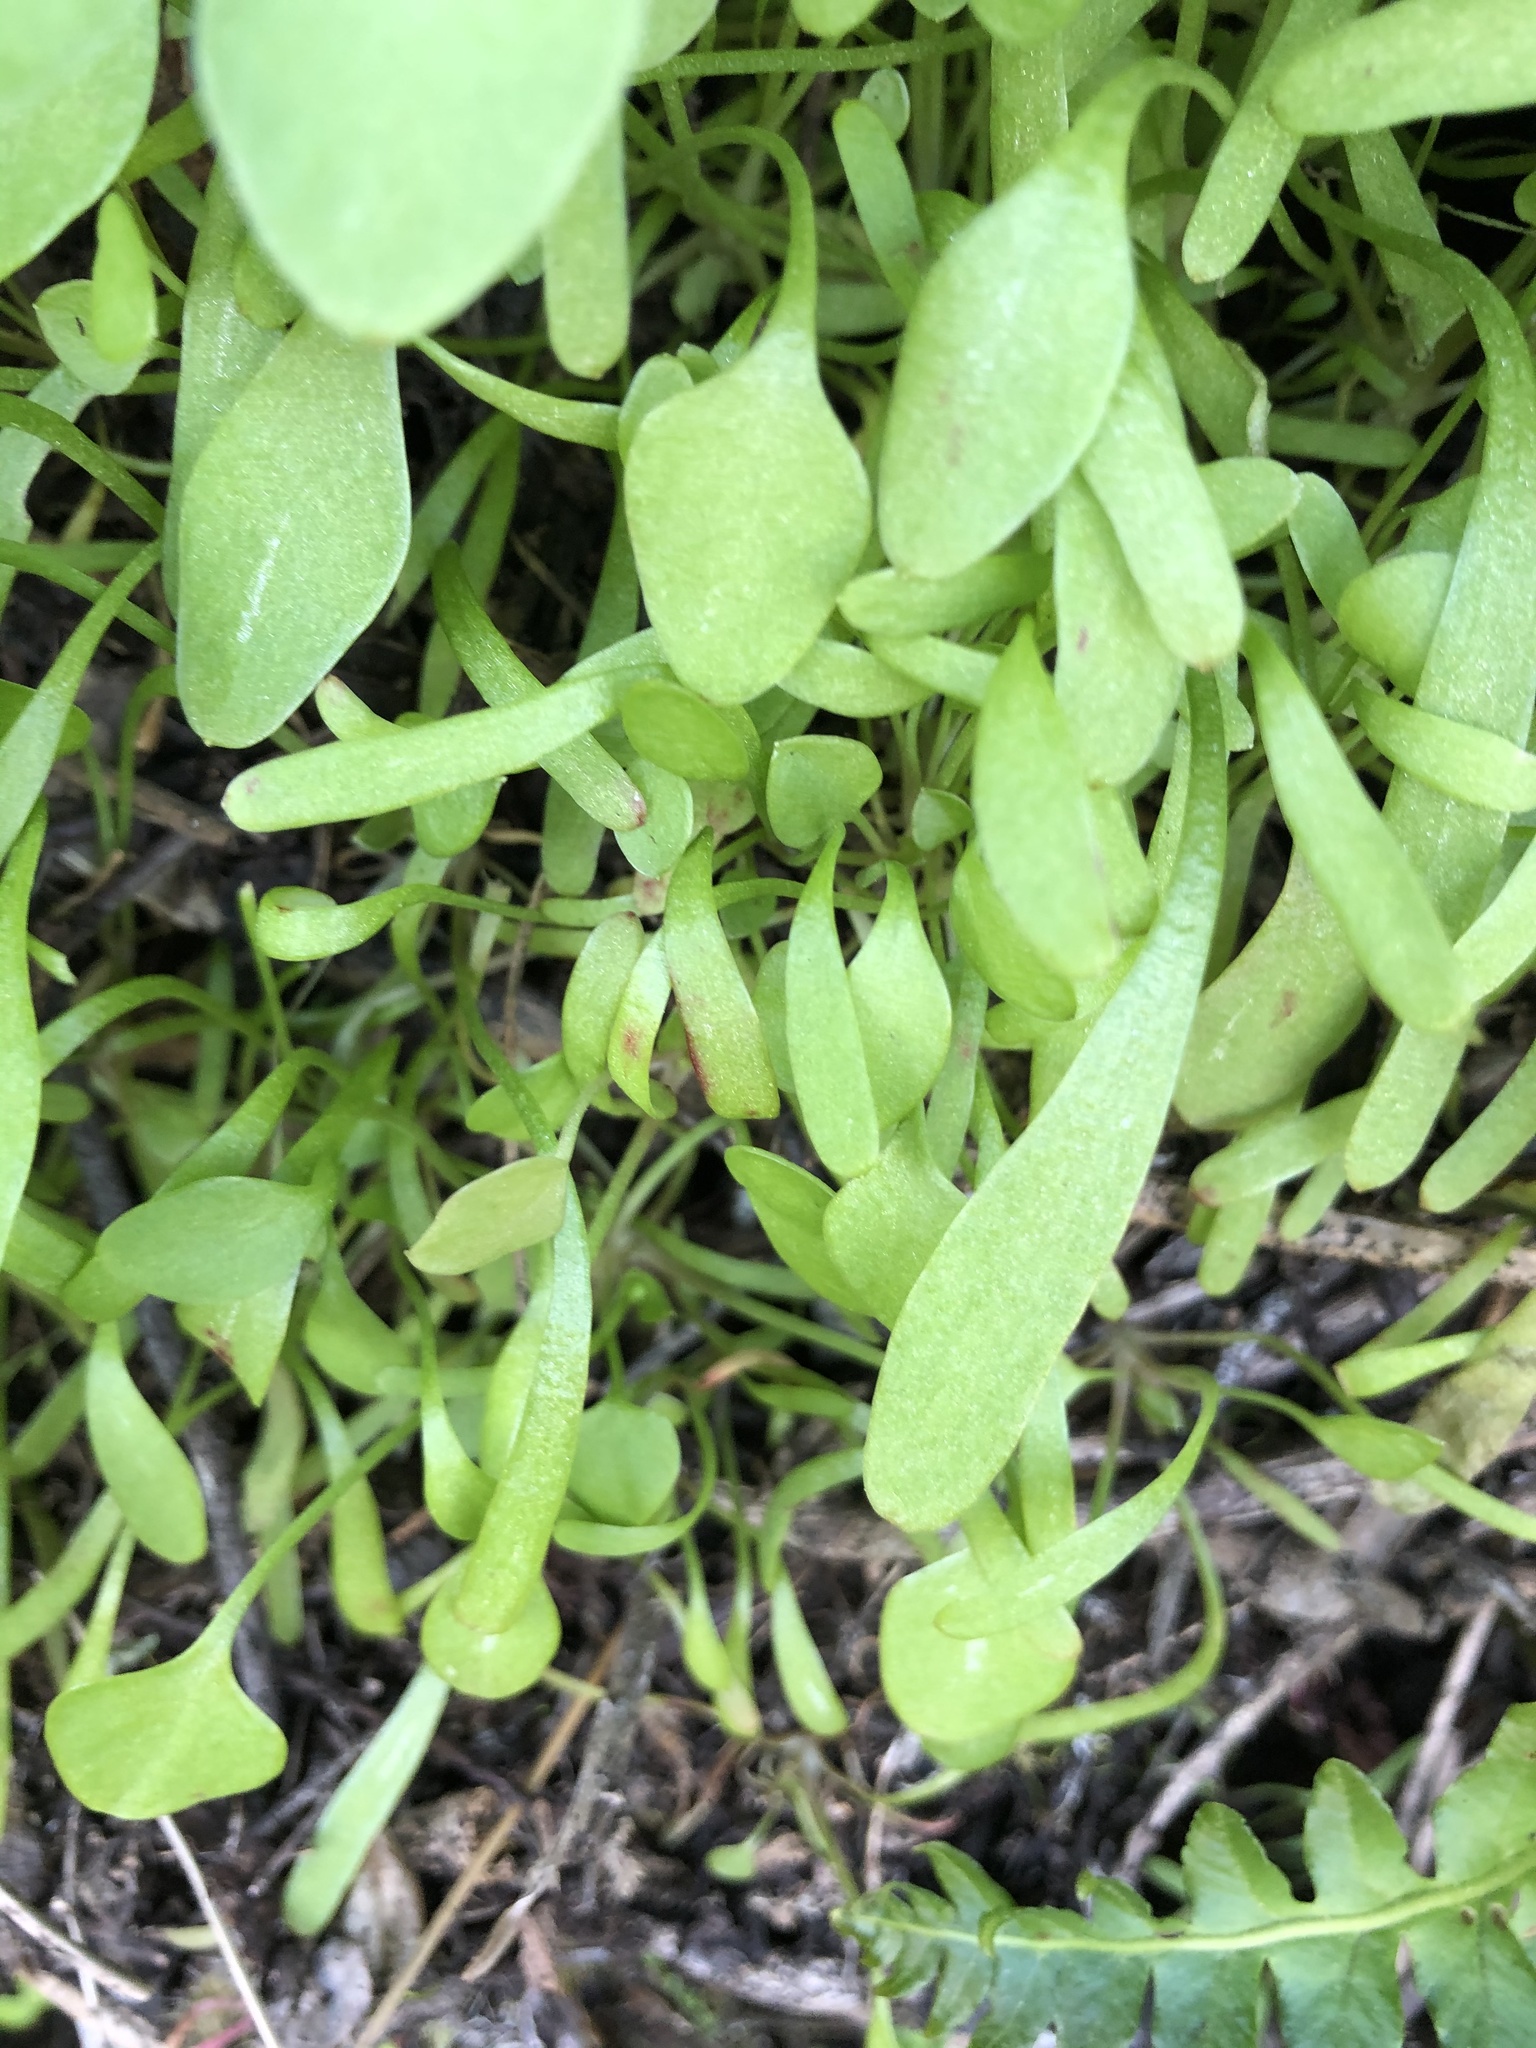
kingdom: Plantae
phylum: Tracheophyta
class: Magnoliopsida
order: Caryophyllales
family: Montiaceae
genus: Claytonia
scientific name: Claytonia perfoliata
